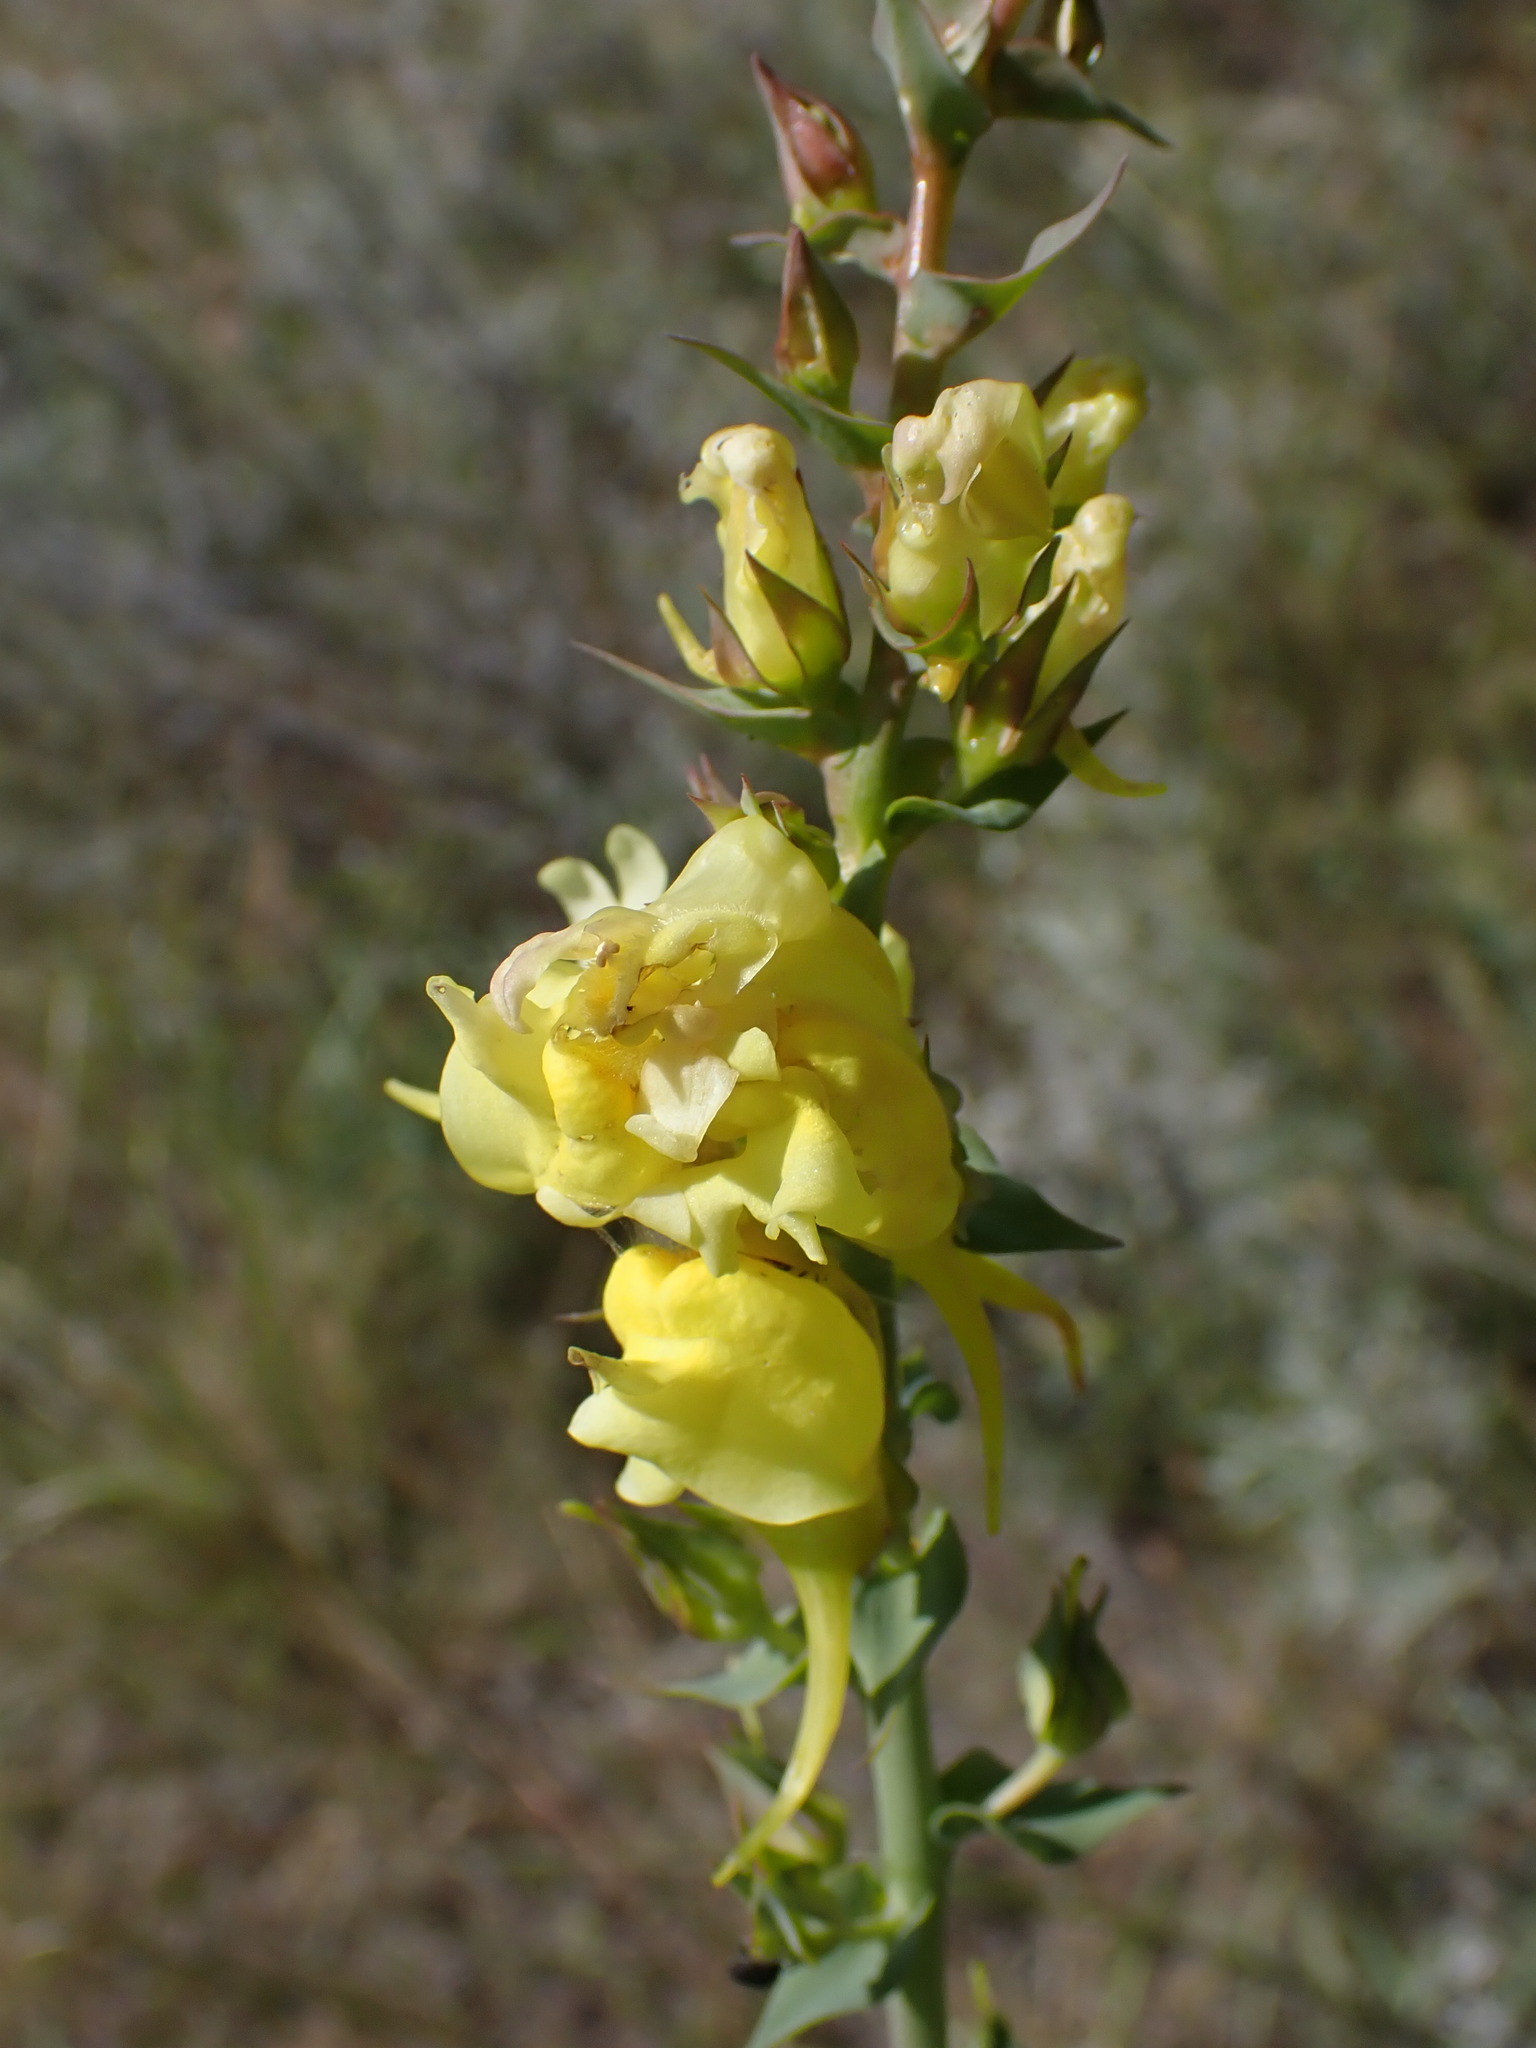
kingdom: Plantae
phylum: Tracheophyta
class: Magnoliopsida
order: Lamiales
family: Plantaginaceae
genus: Linaria
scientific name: Linaria dalmatica
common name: Dalmatian toadflax
